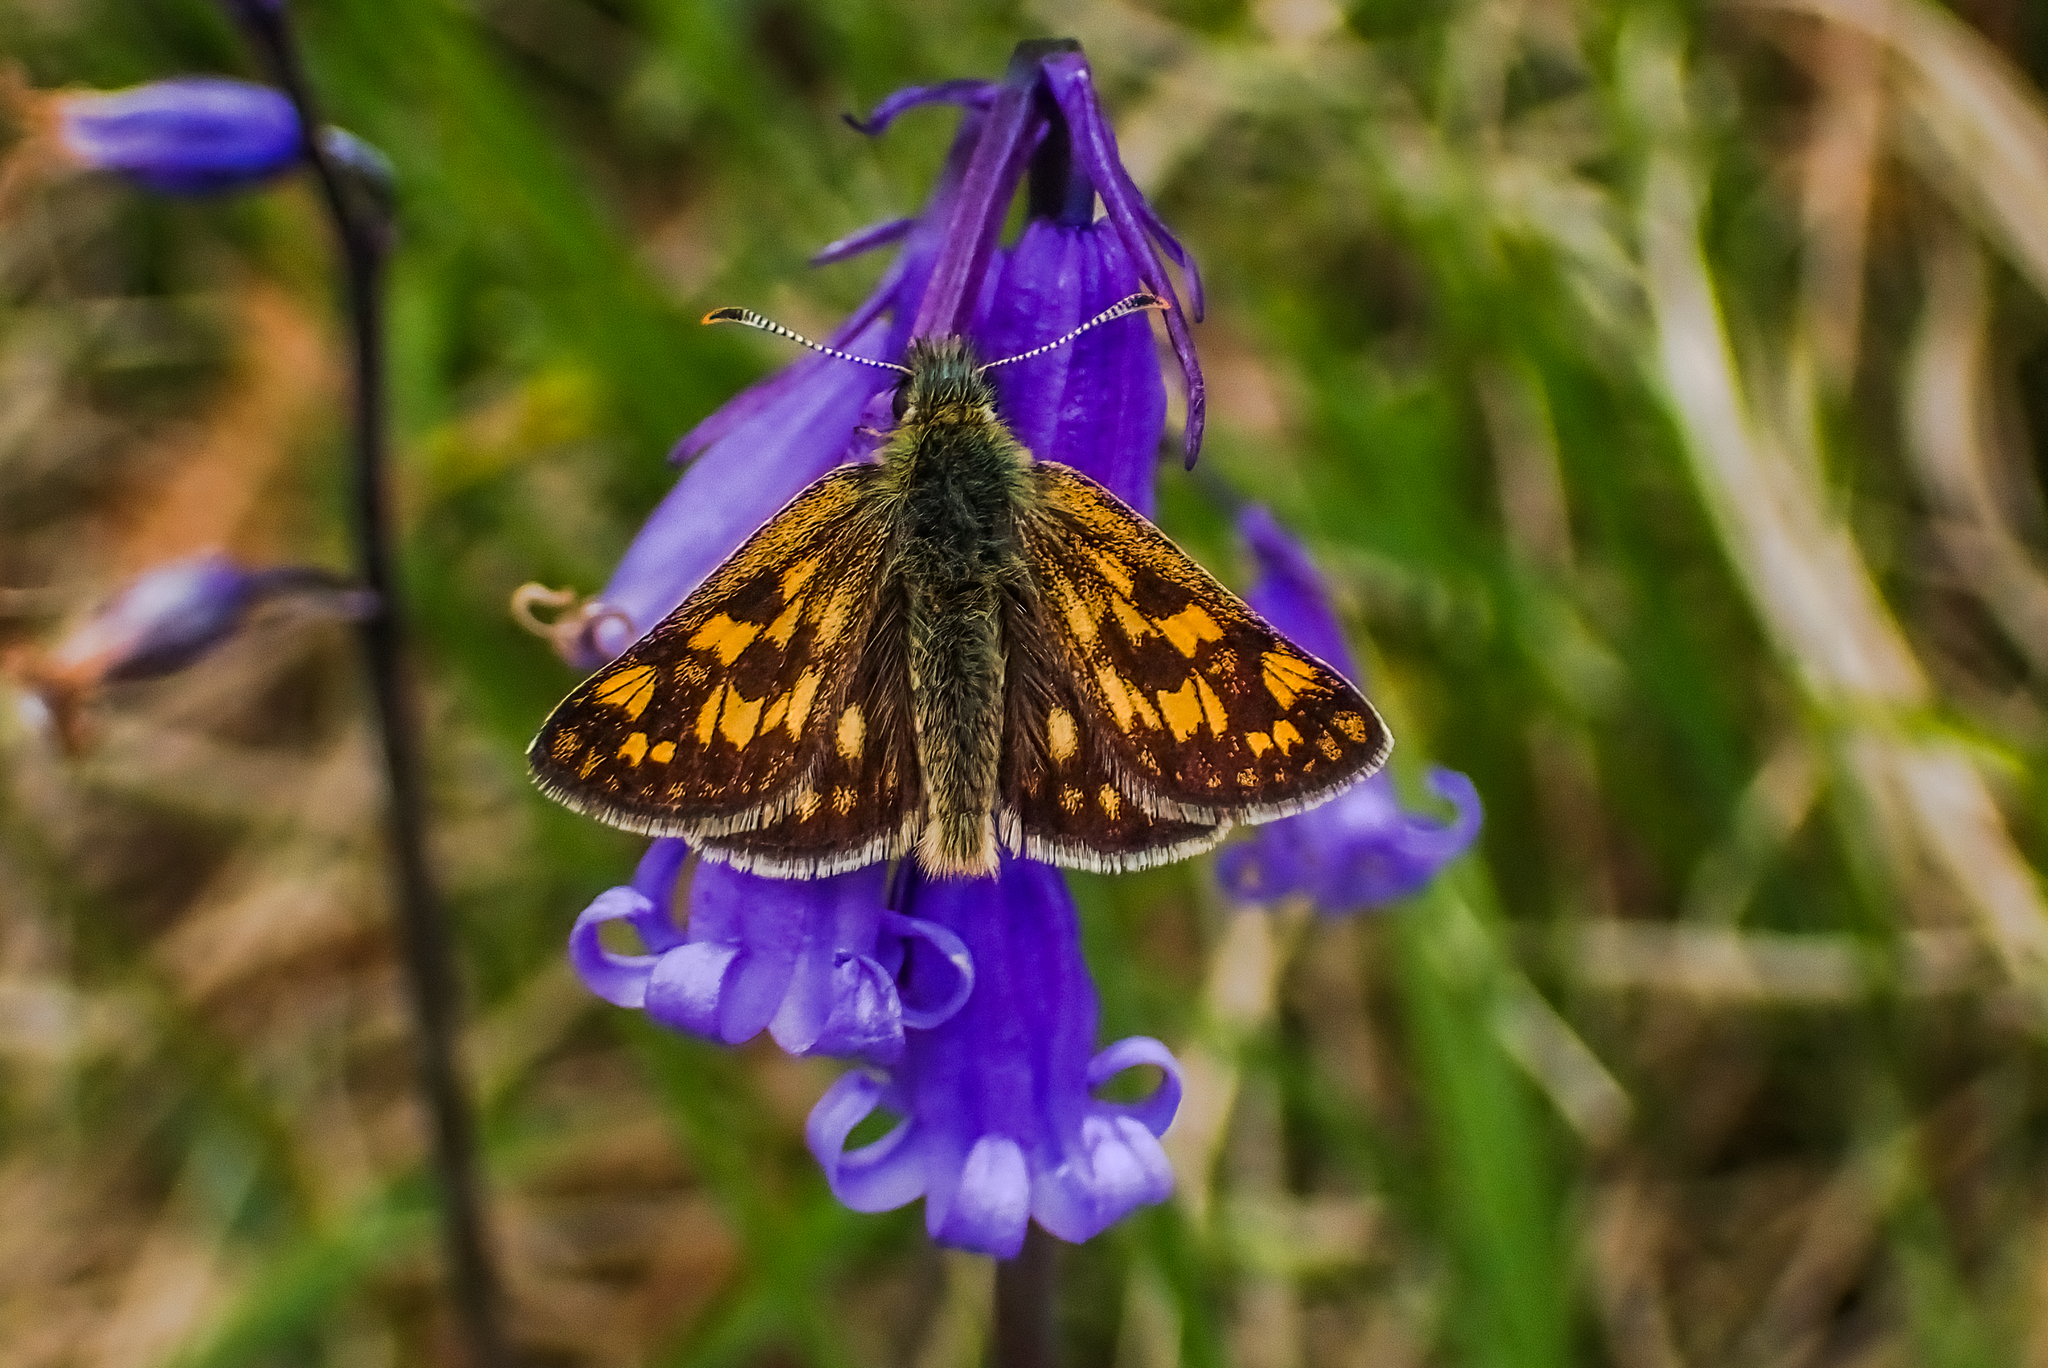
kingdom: Animalia
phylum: Arthropoda
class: Insecta
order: Lepidoptera
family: Hesperiidae
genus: Carterocephalus
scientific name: Carterocephalus palaemon
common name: Chequered skipper
